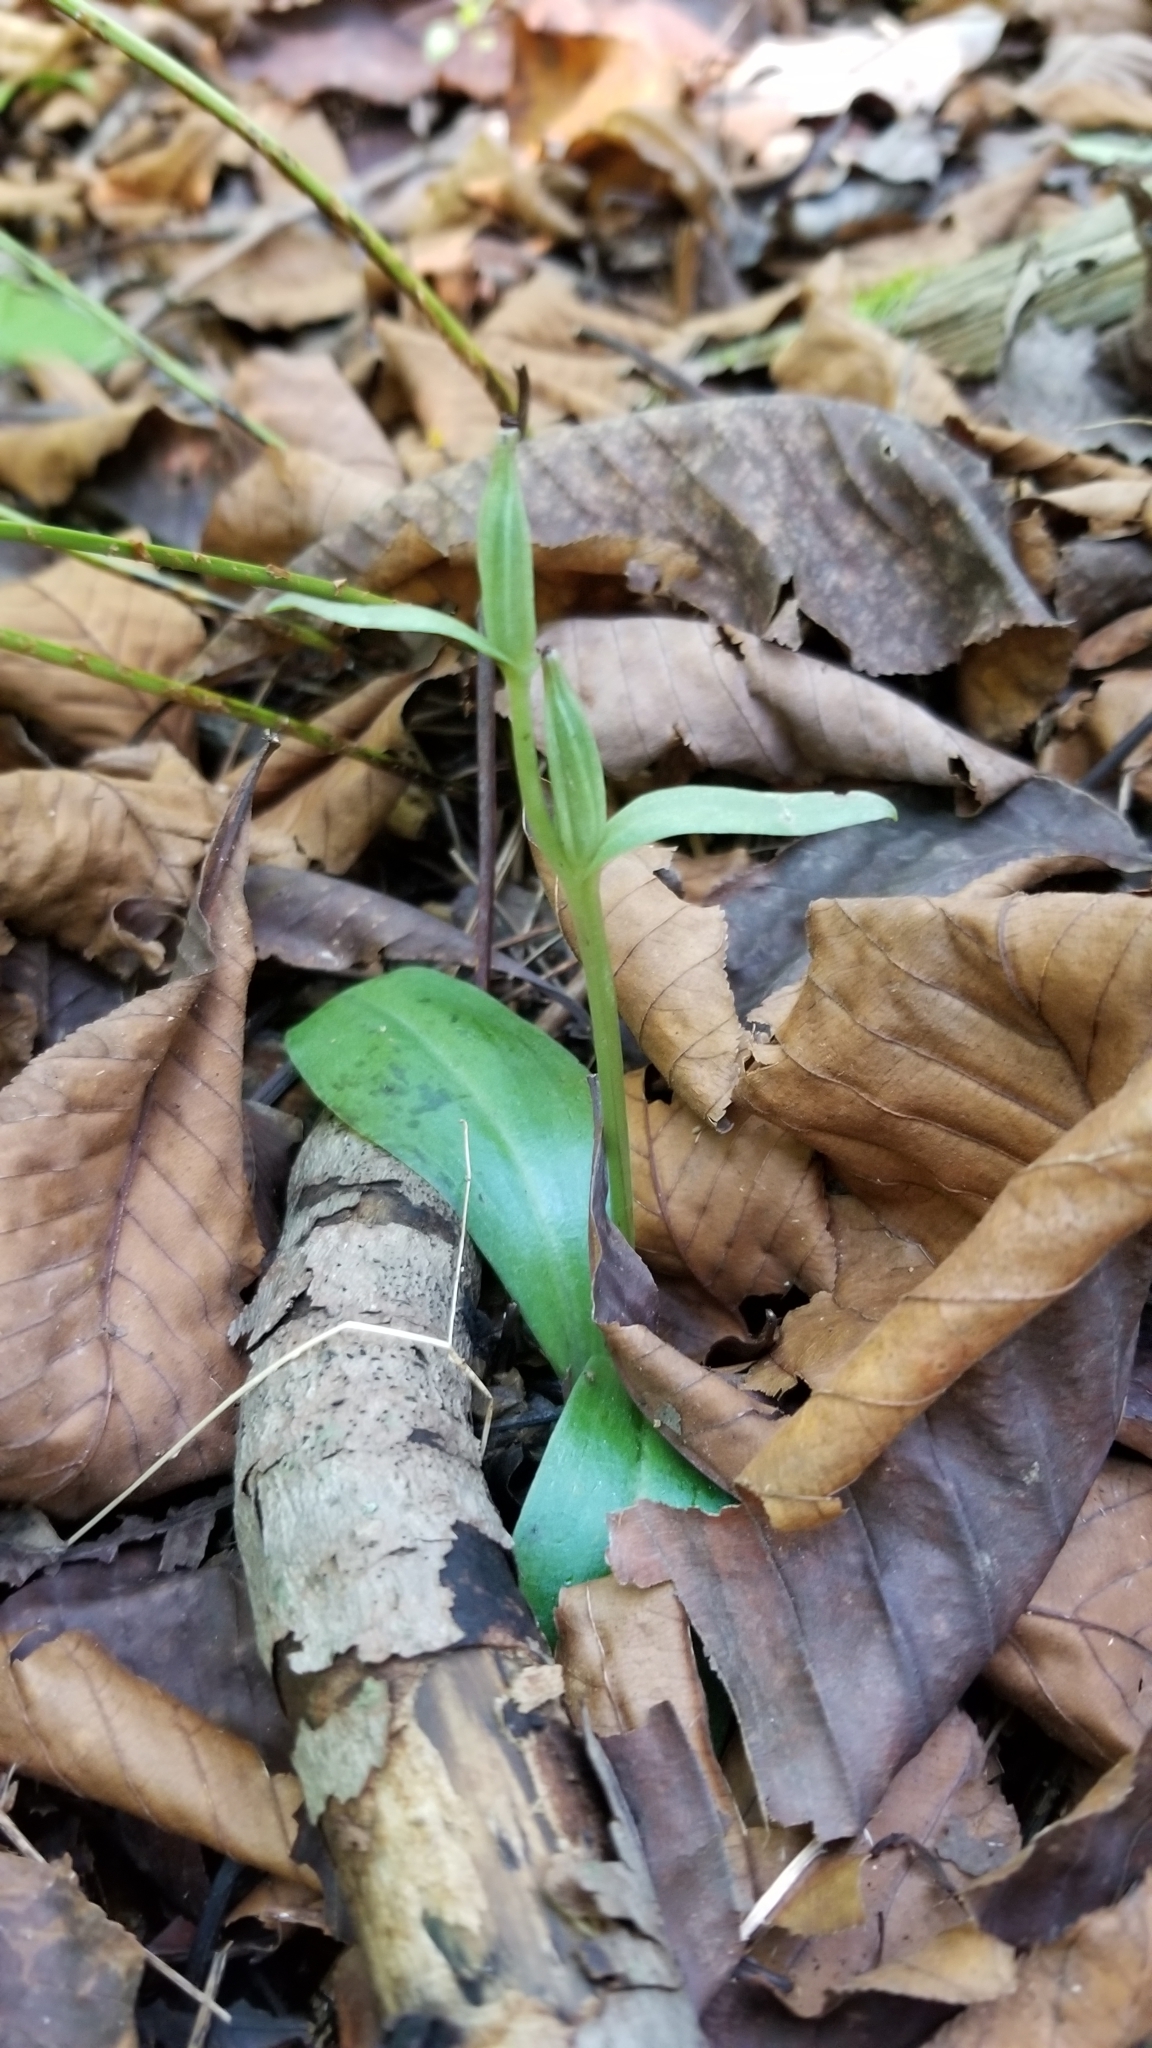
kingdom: Plantae
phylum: Tracheophyta
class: Liliopsida
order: Asparagales
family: Orchidaceae
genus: Galearis
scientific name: Galearis spectabilis
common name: Purple-hooded orchis
